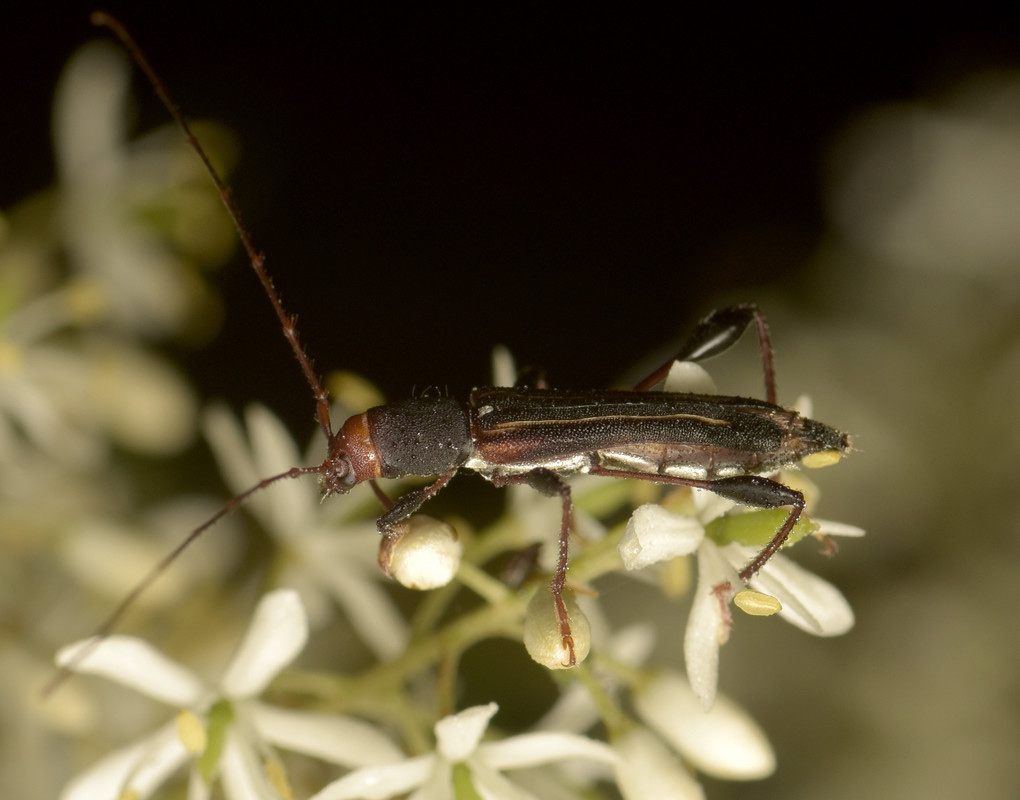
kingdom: Animalia
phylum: Arthropoda
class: Insecta
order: Coleoptera
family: Cerambycidae
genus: Amphirhoe
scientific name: Amphirhoe sloanei
